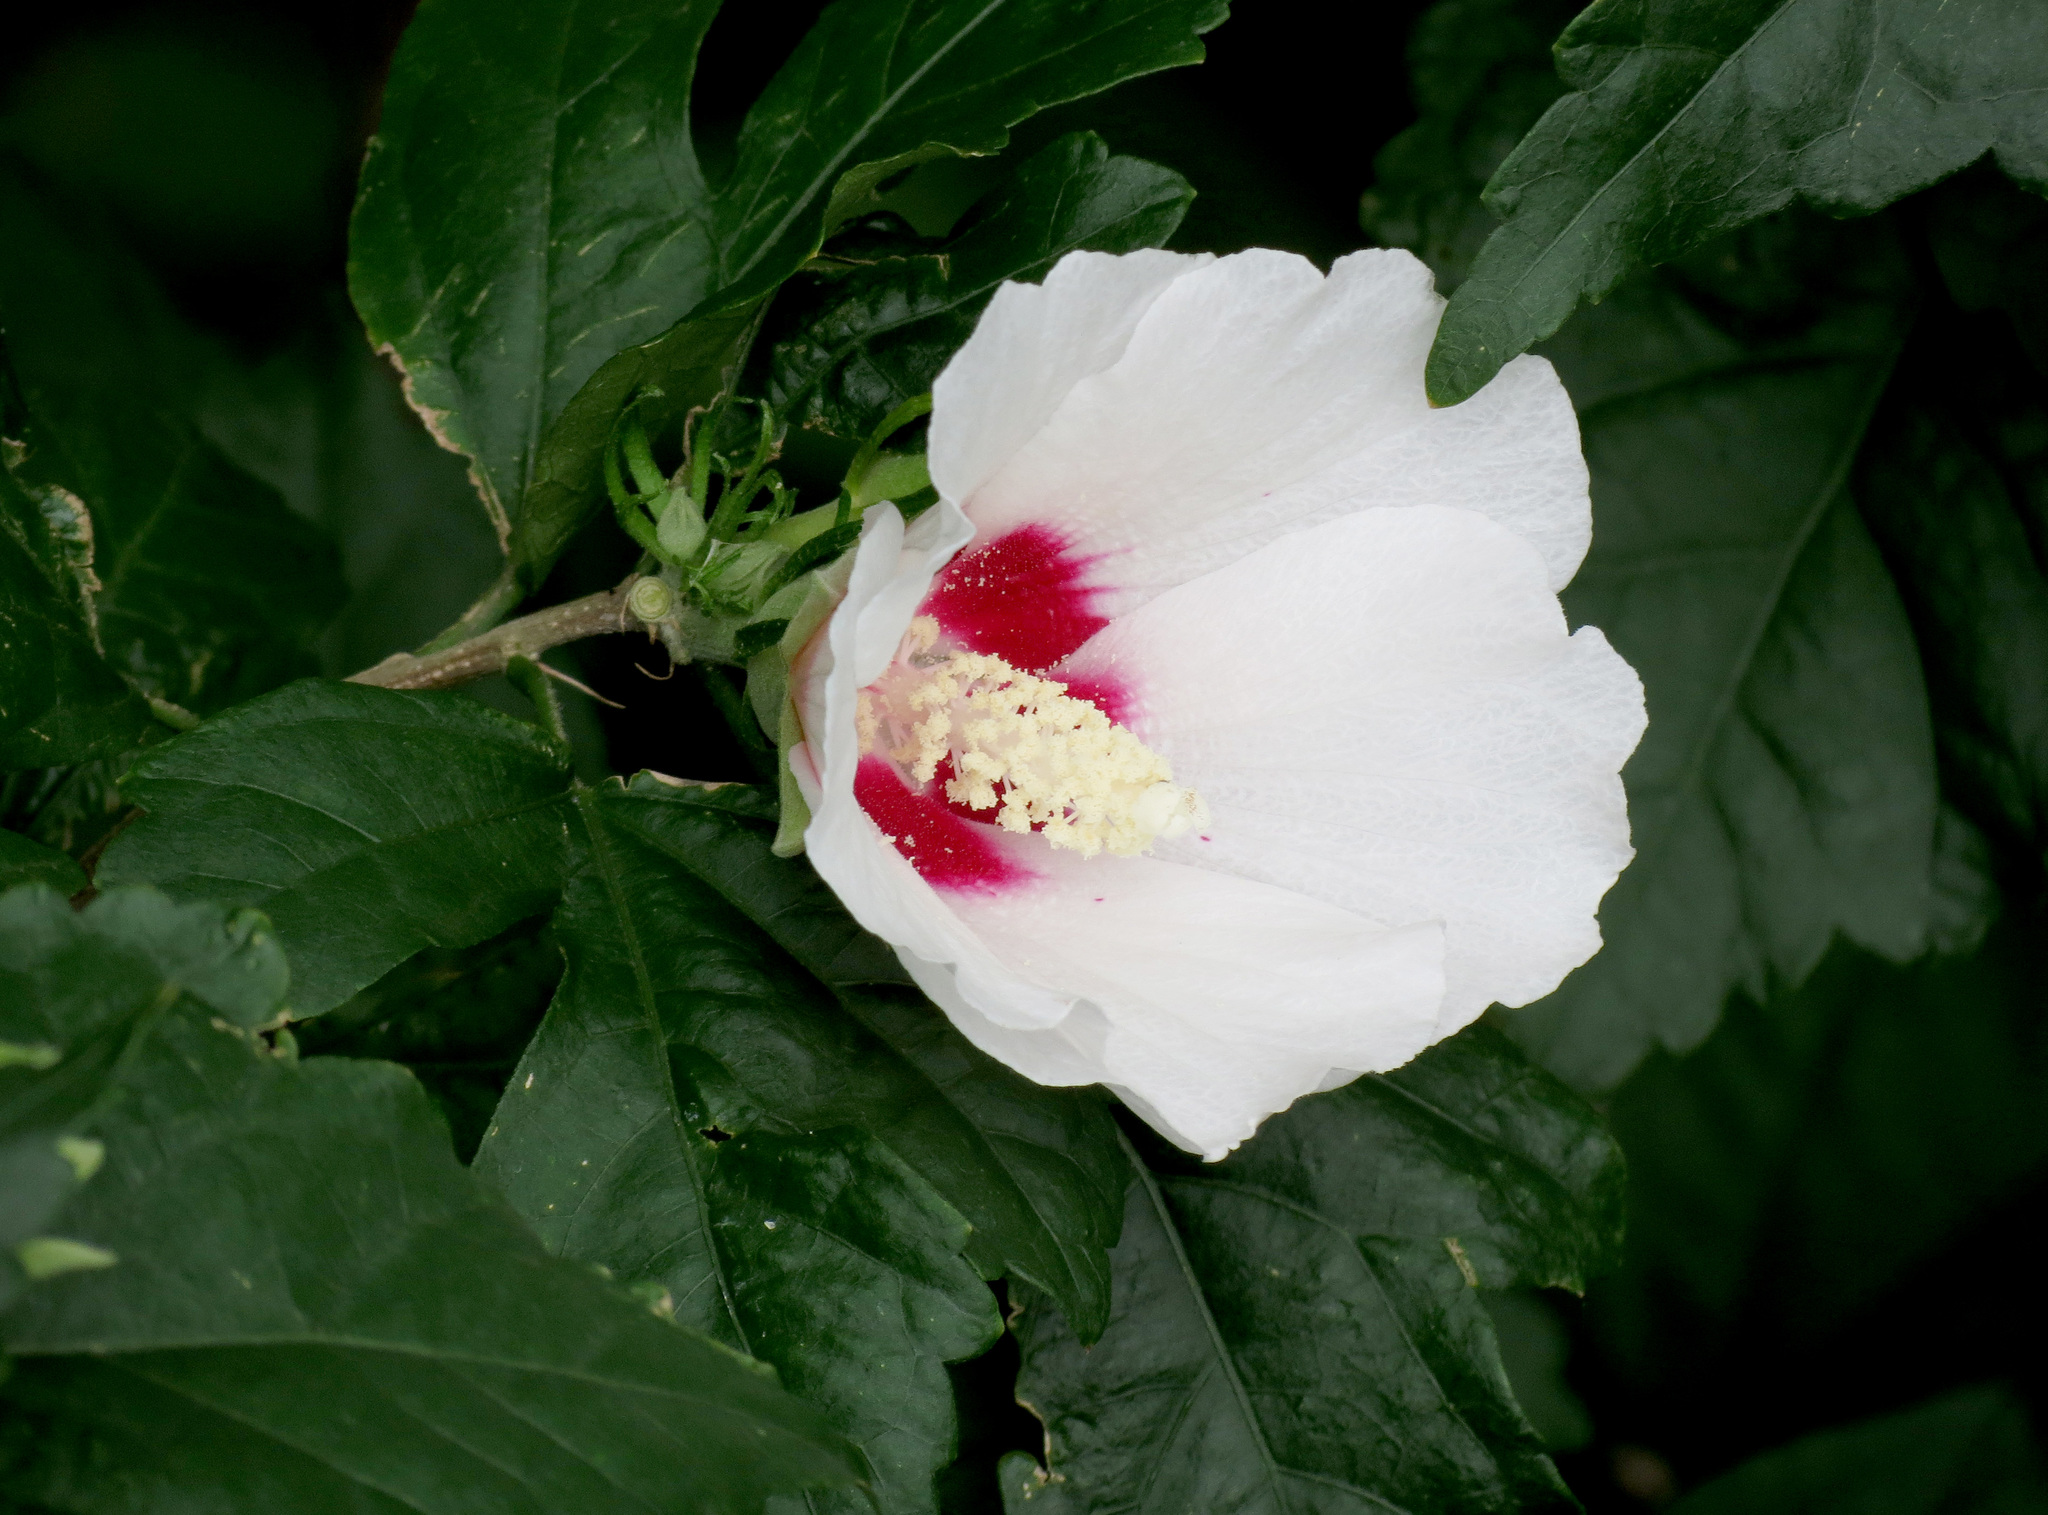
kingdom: Plantae
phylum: Tracheophyta
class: Magnoliopsida
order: Malvales
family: Malvaceae
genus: Hibiscus
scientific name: Hibiscus syriacus
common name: Syrian ketmia
